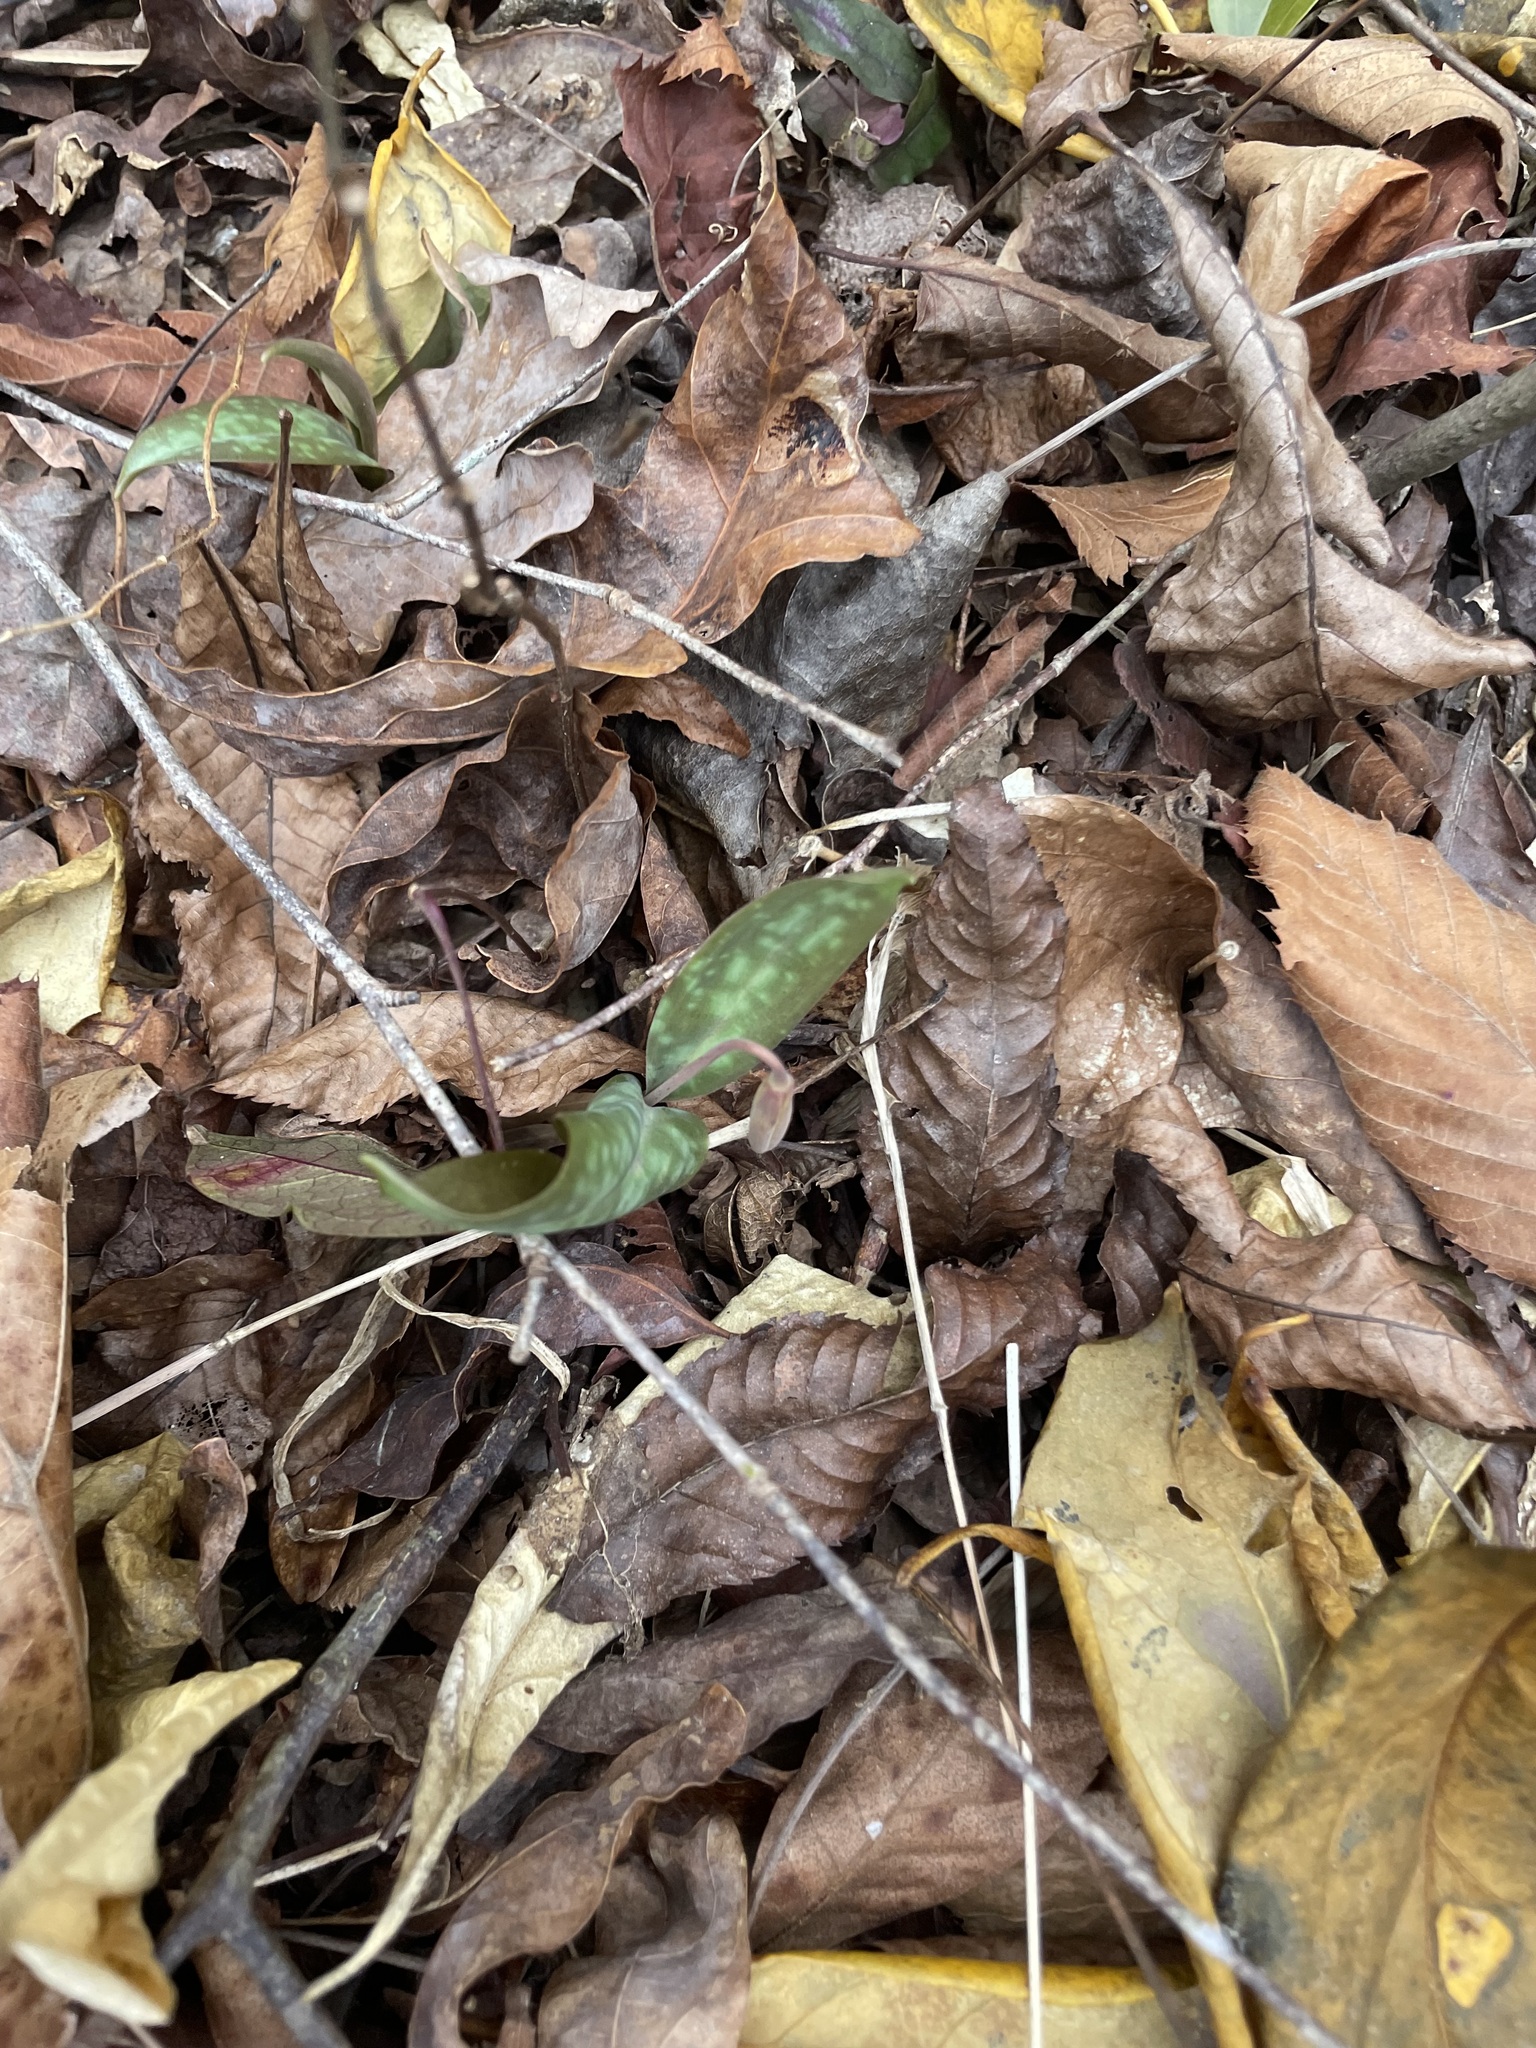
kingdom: Plantae
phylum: Tracheophyta
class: Liliopsida
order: Liliales
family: Liliaceae
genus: Erythronium
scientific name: Erythronium umbilicatum
